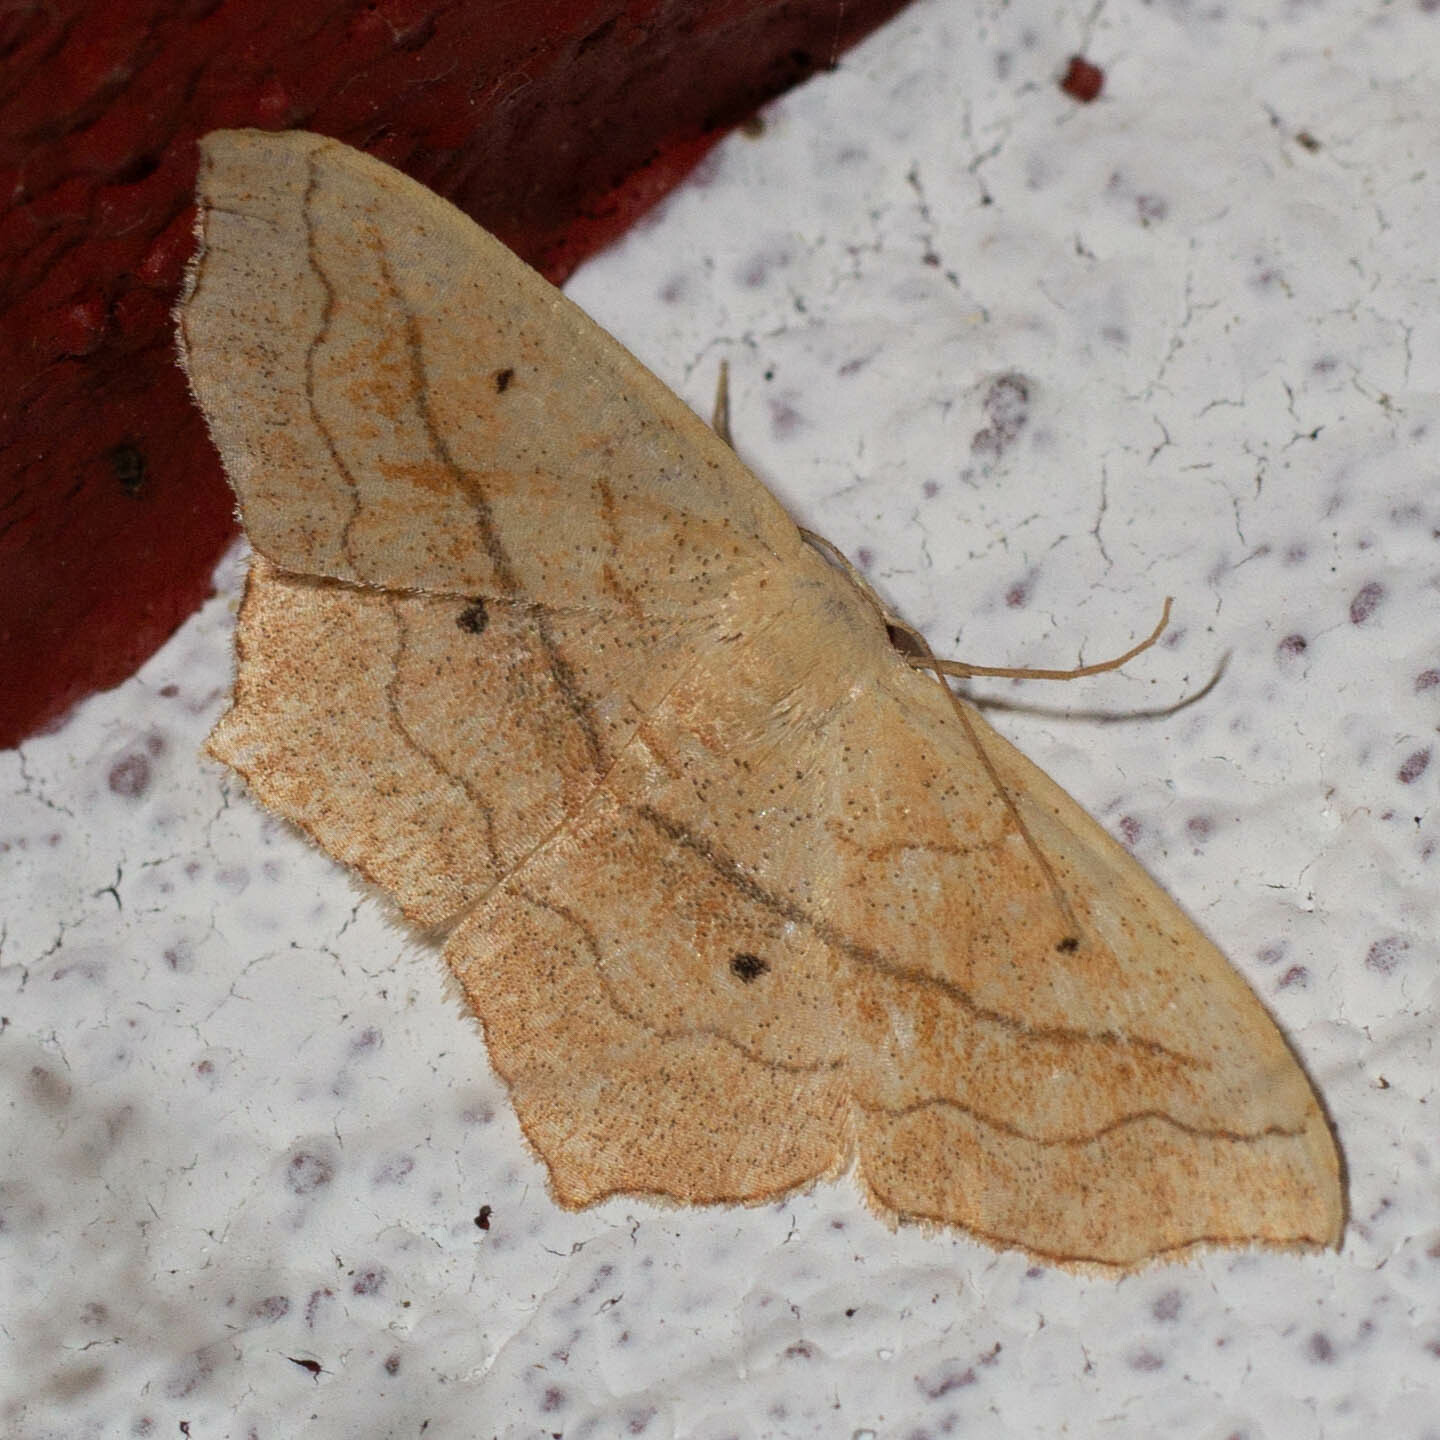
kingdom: Animalia
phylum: Arthropoda
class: Insecta
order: Lepidoptera
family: Geometridae
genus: Scopula
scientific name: Scopula imitaria
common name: Small blood-vein
